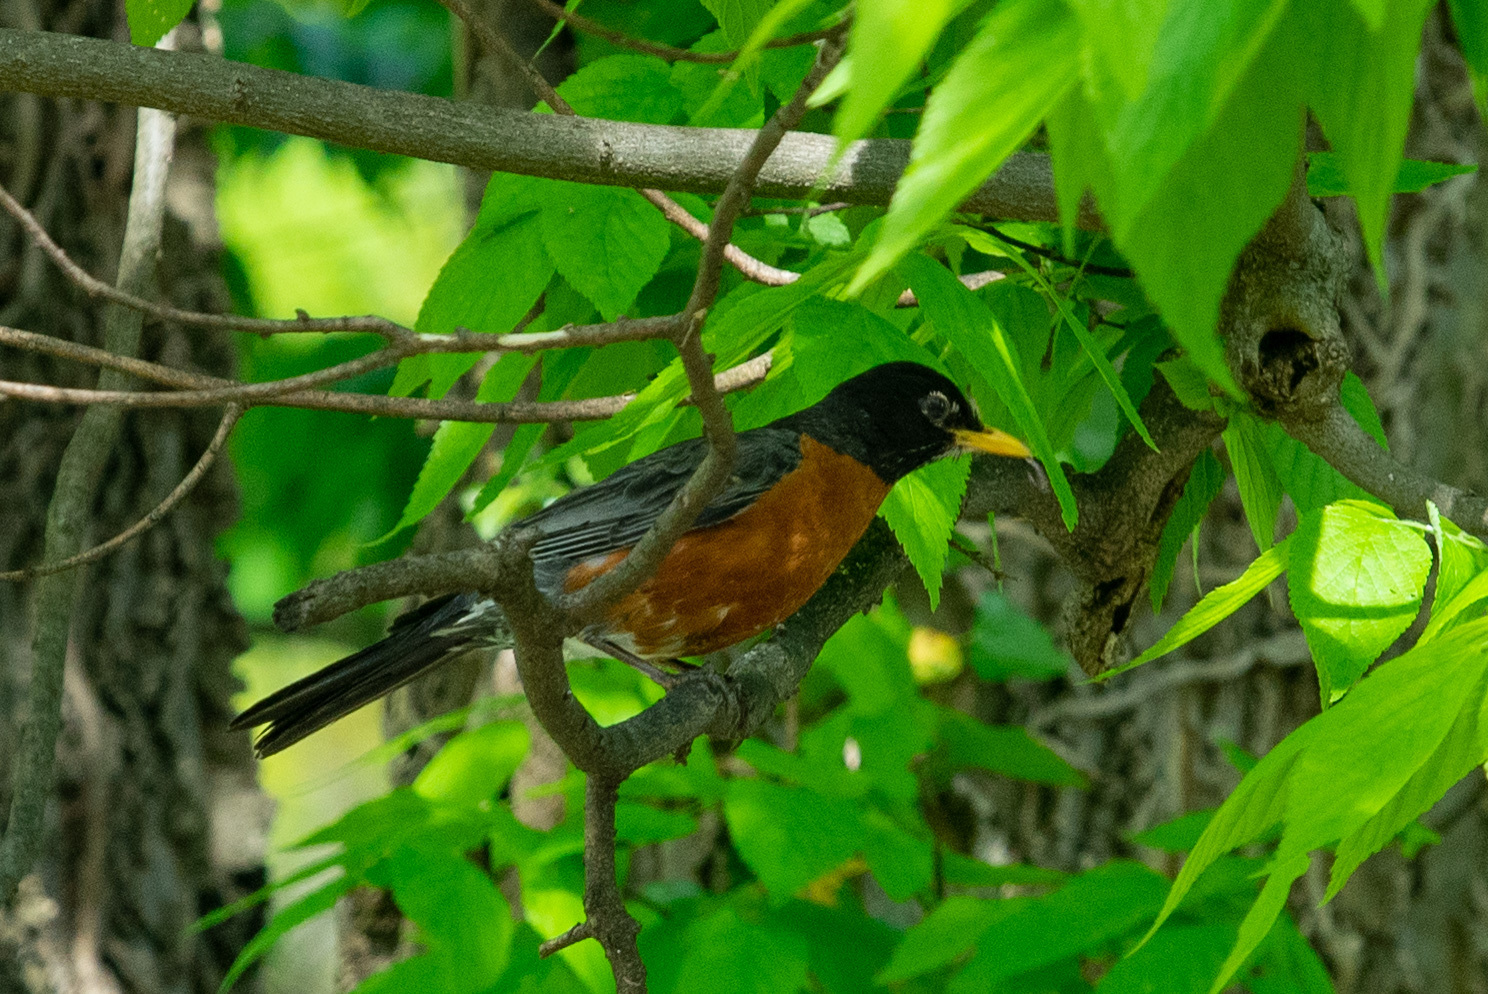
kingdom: Animalia
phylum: Chordata
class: Aves
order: Passeriformes
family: Turdidae
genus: Turdus
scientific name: Turdus migratorius
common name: American robin
